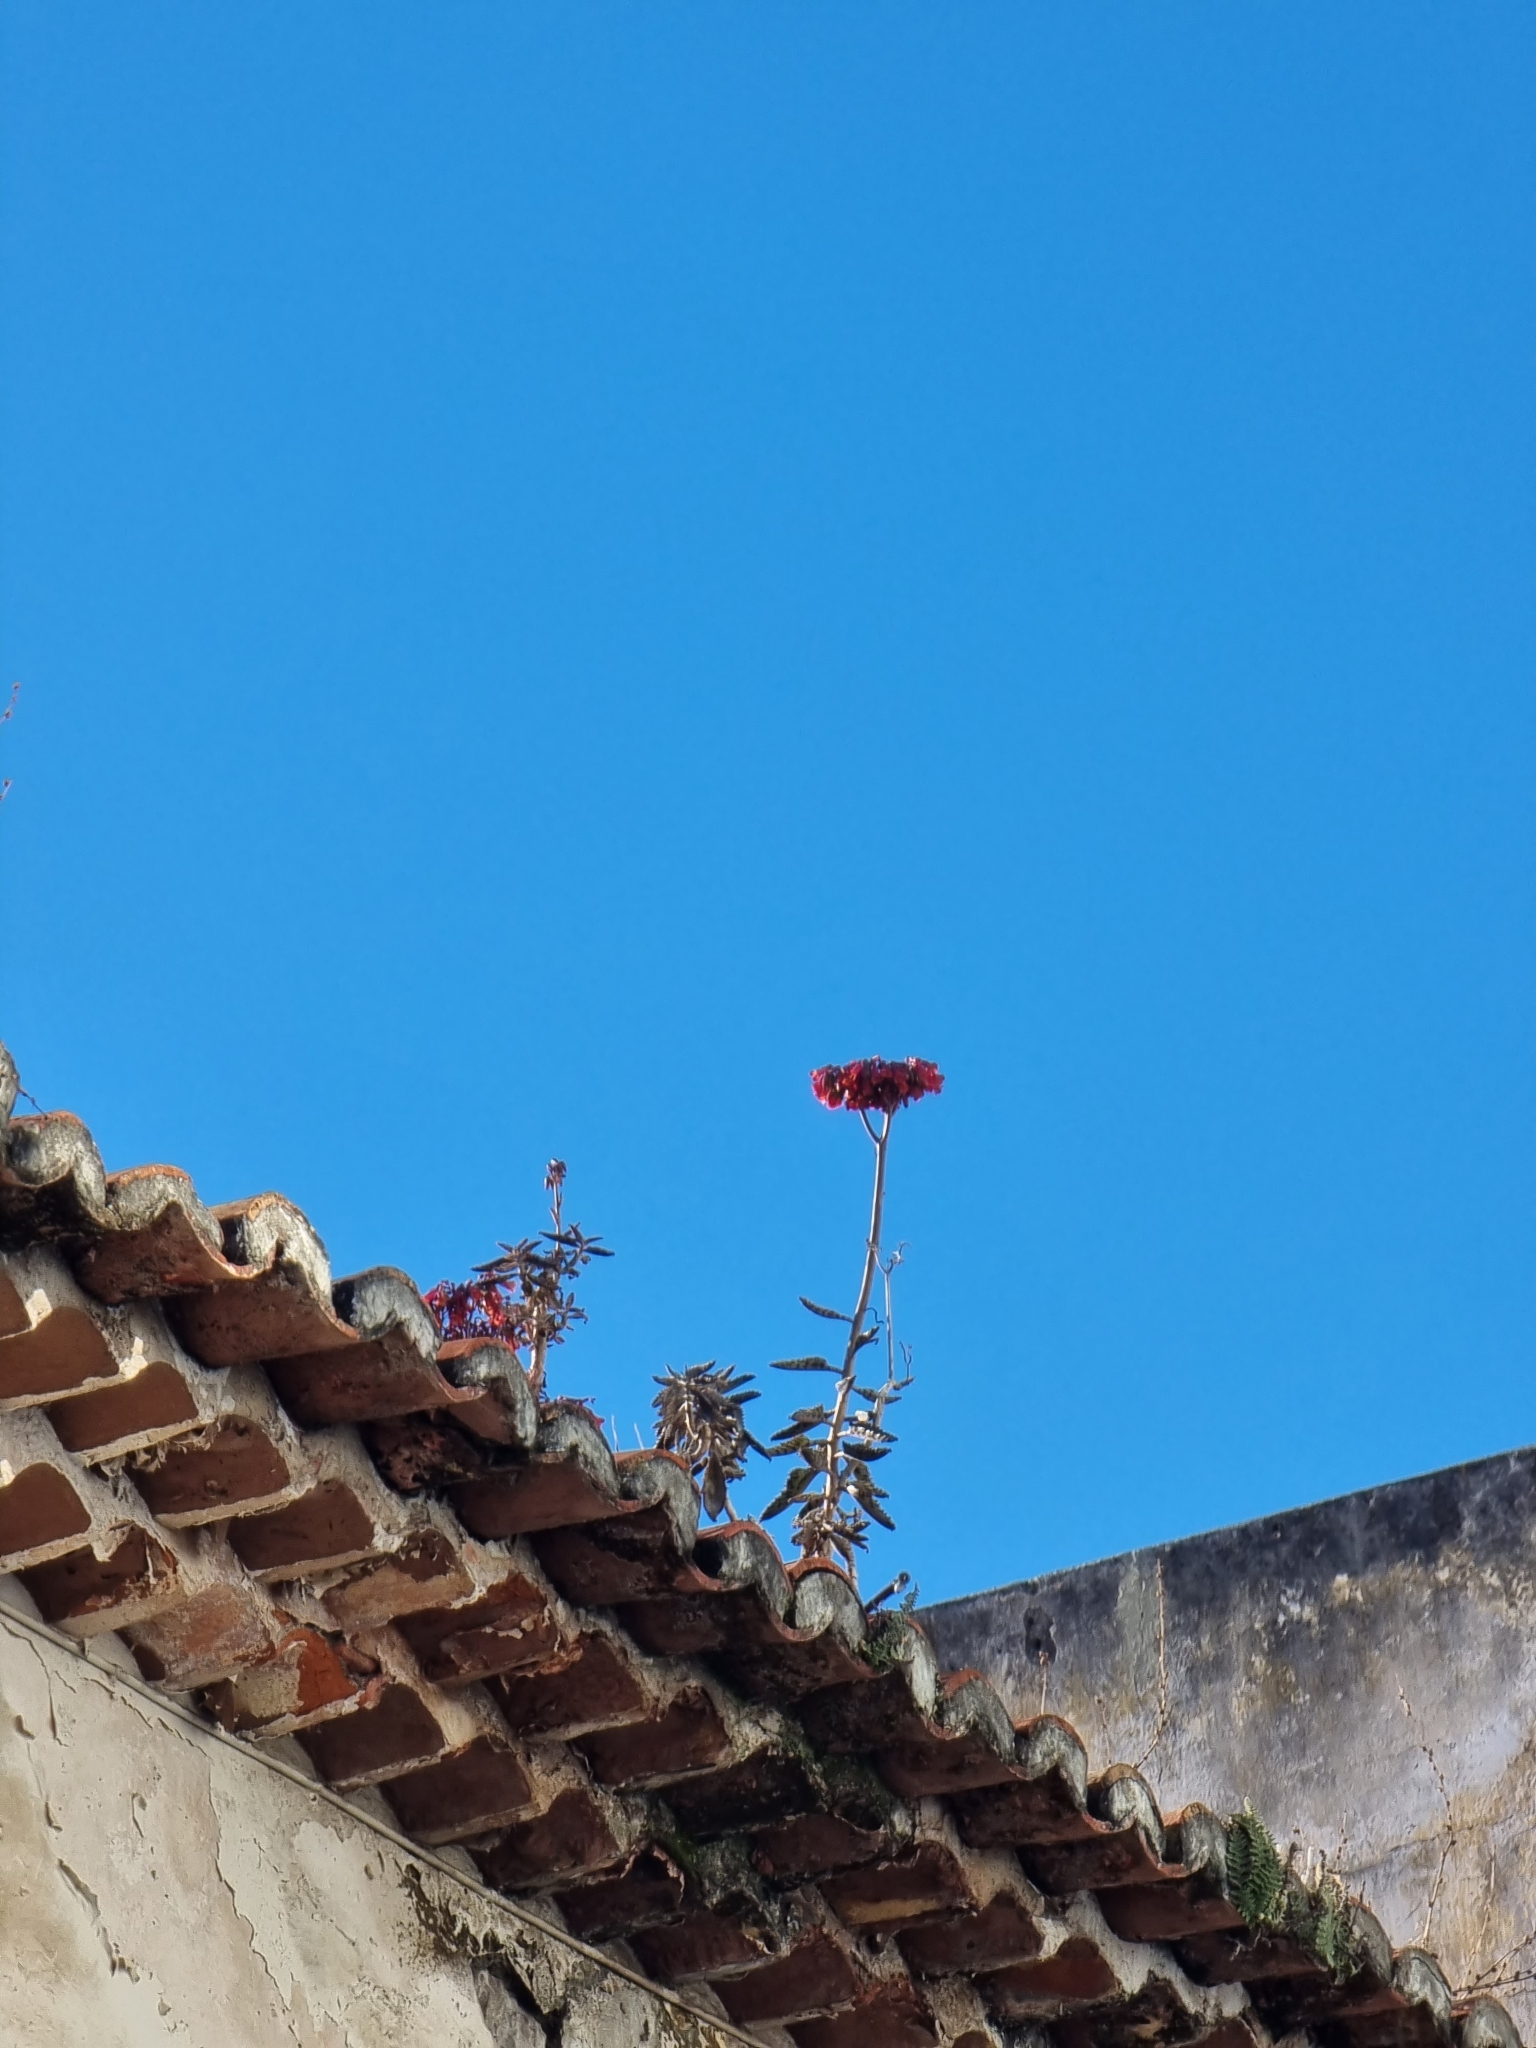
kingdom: Plantae
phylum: Tracheophyta
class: Magnoliopsida
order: Saxifragales
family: Crassulaceae
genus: Kalanchoe
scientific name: Kalanchoe houghtonii
